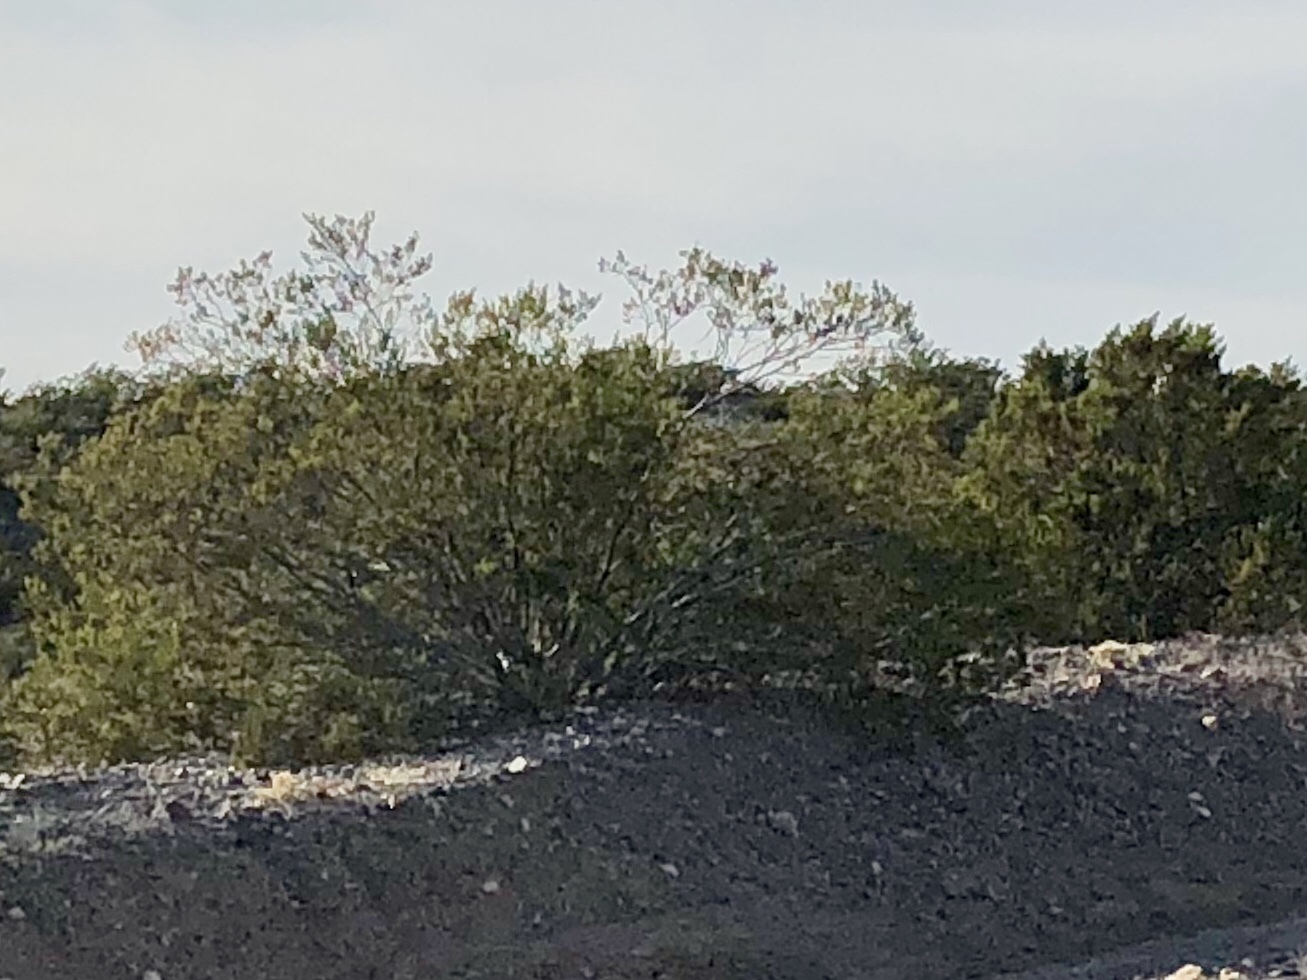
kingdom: Plantae
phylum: Tracheophyta
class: Magnoliopsida
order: Zygophyllales
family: Zygophyllaceae
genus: Larrea
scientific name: Larrea tridentata
